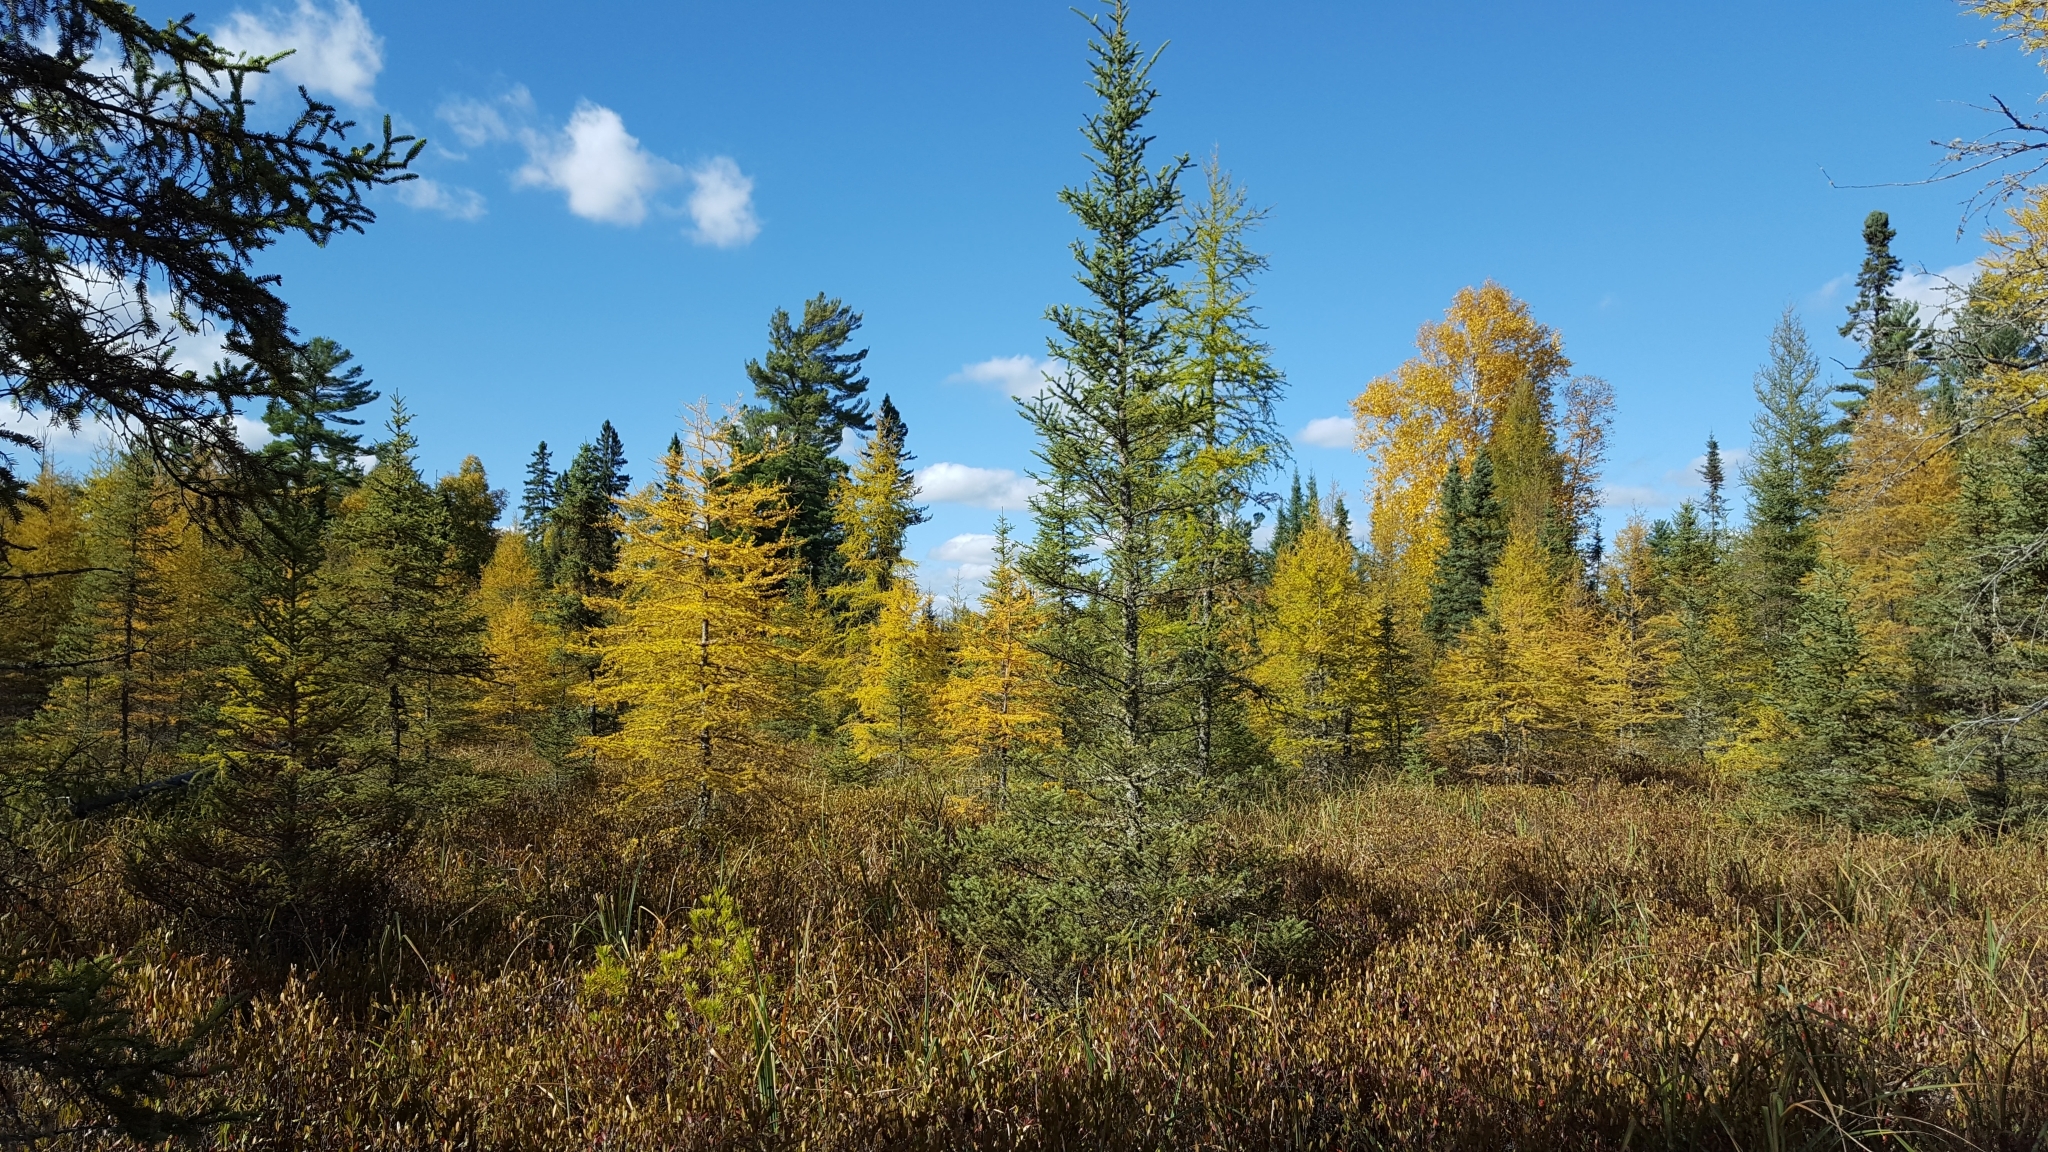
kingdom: Plantae
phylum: Tracheophyta
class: Pinopsida
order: Pinales
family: Pinaceae
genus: Larix
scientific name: Larix laricina
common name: American larch
